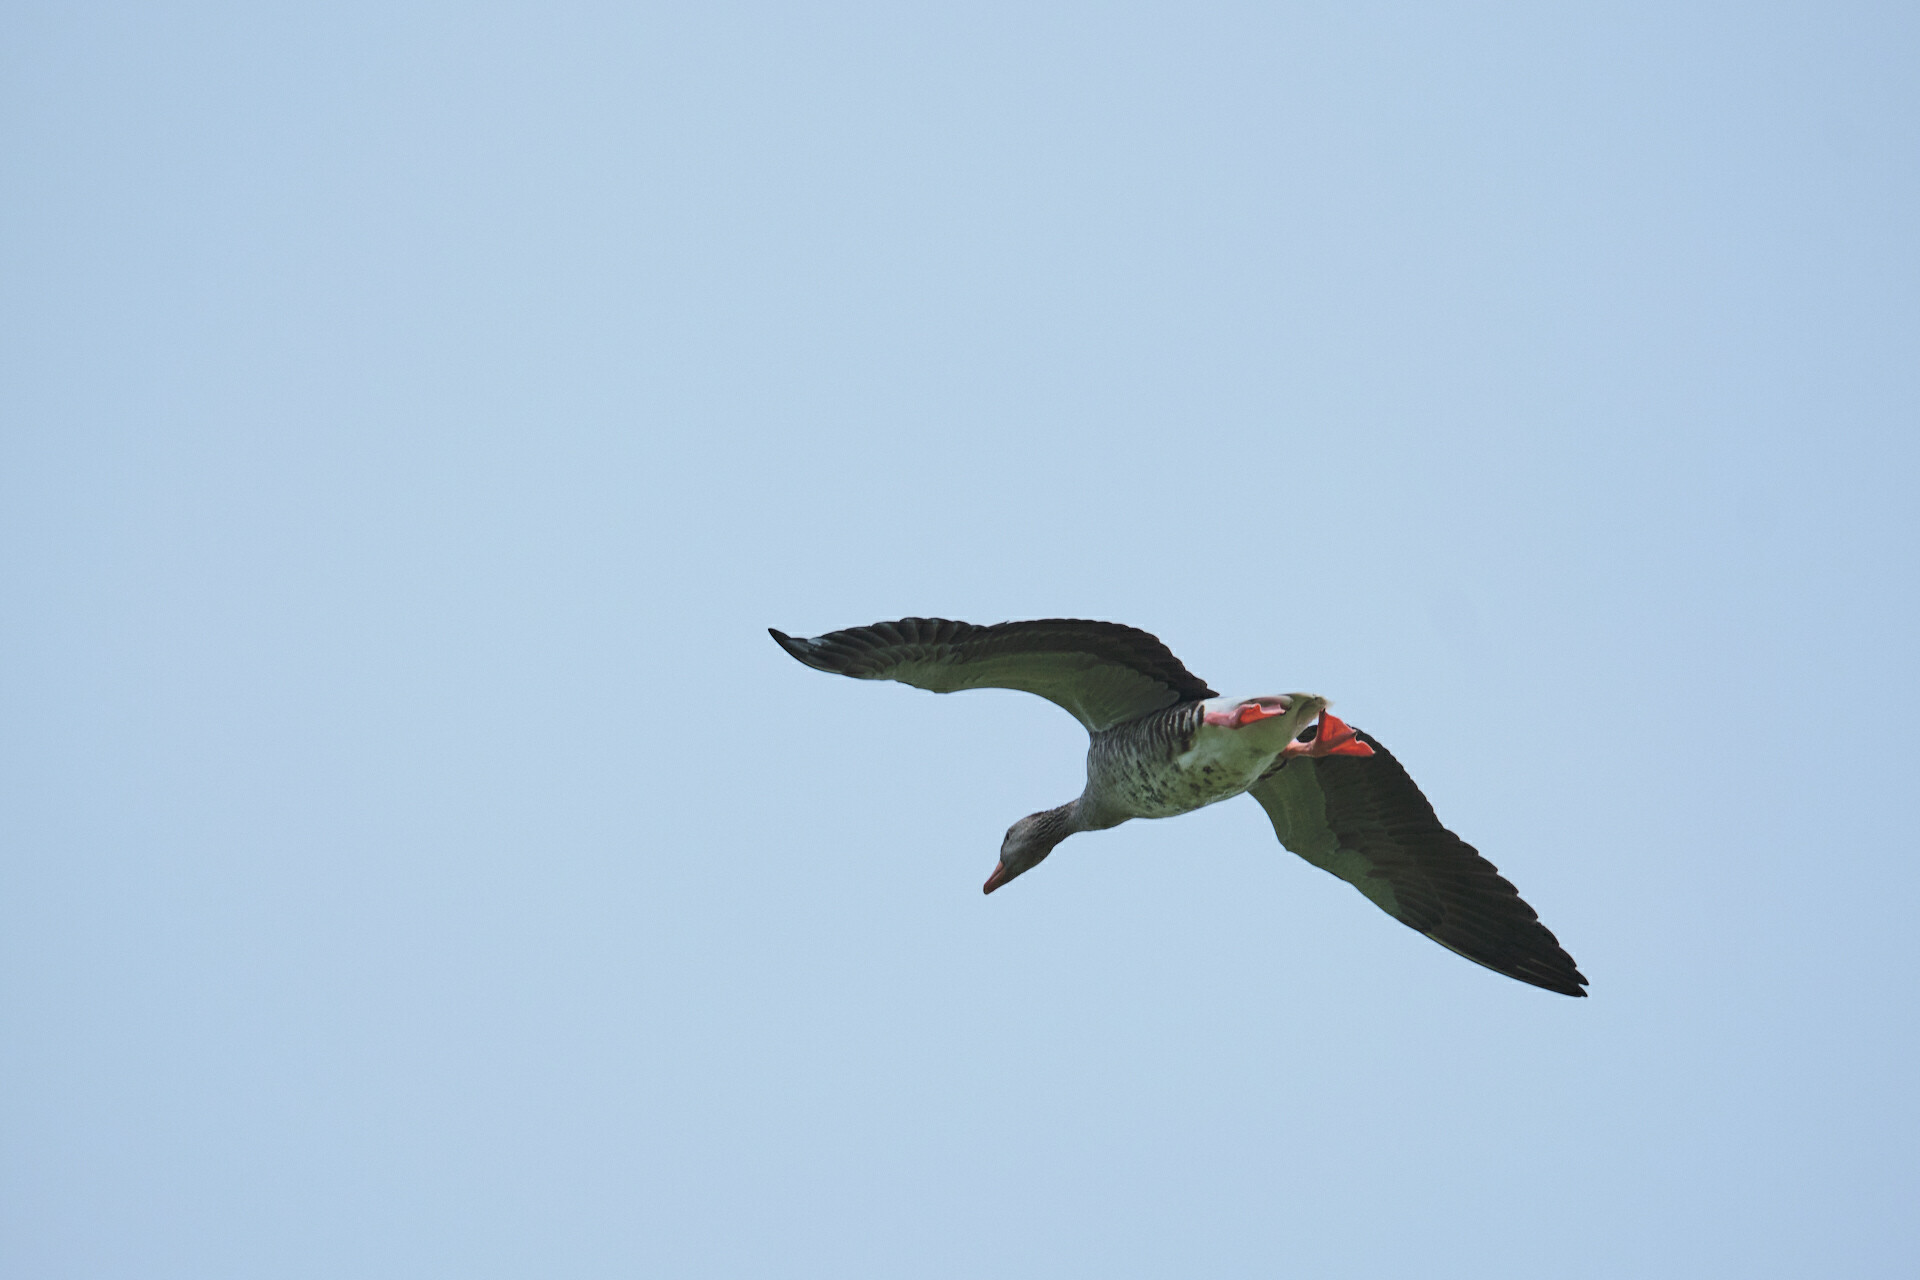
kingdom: Animalia
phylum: Chordata
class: Aves
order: Anseriformes
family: Anatidae
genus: Anser
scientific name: Anser anser
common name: Greylag goose
